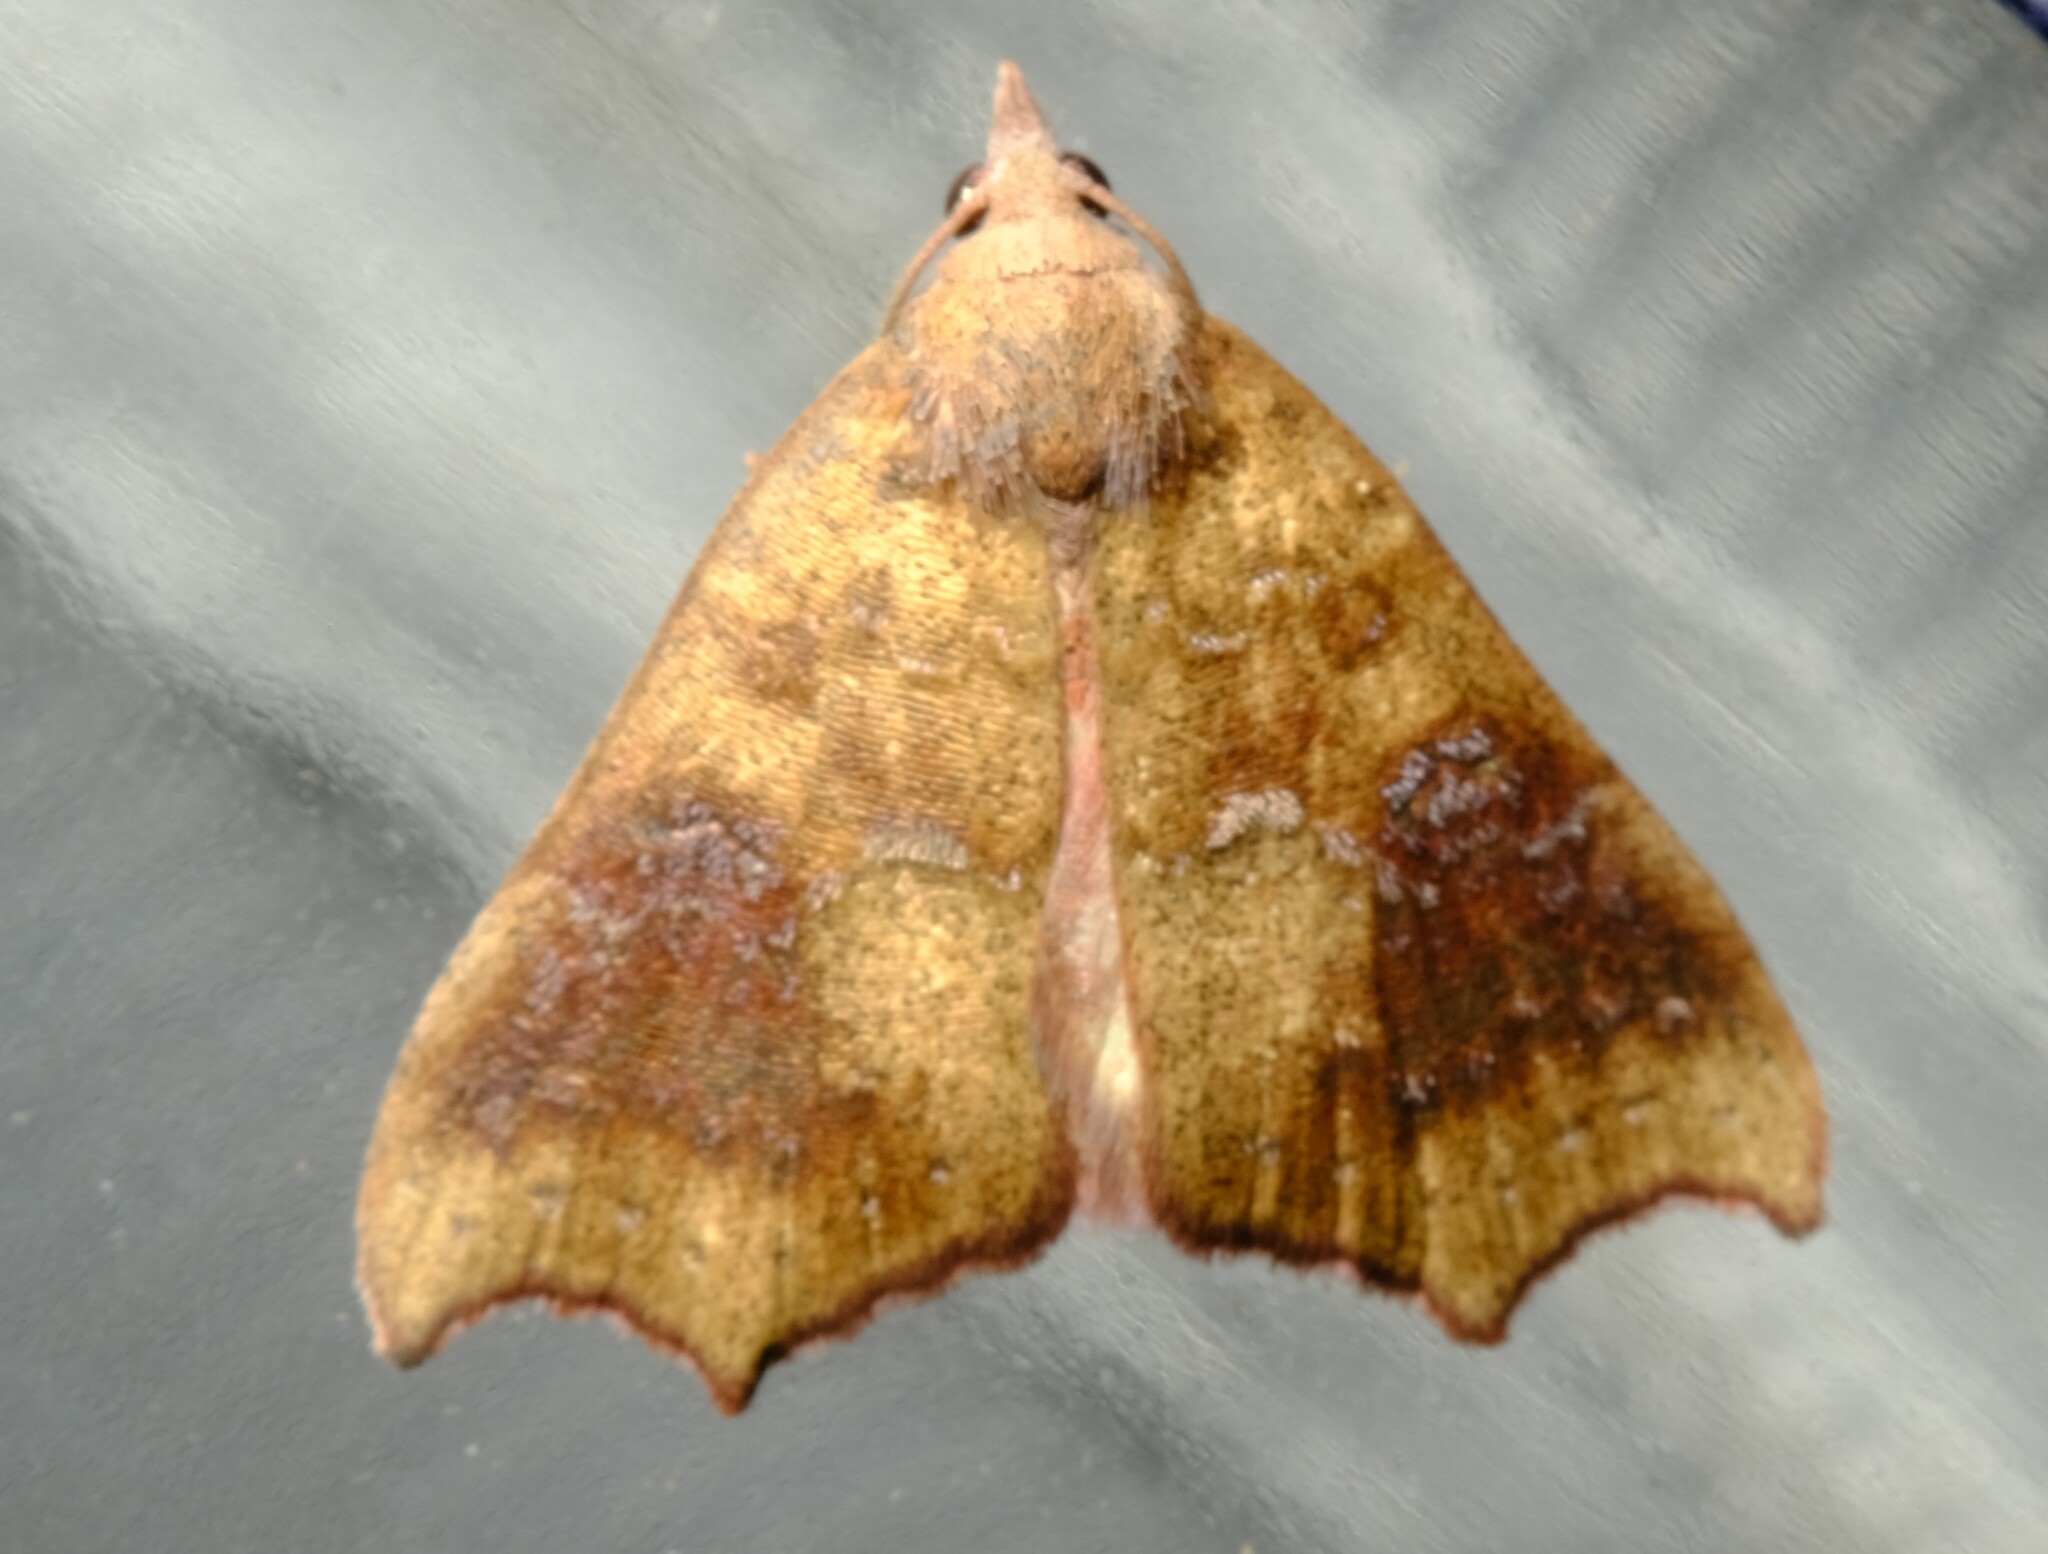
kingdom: Animalia
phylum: Arthropoda
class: Insecta
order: Lepidoptera
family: Erebidae
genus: Axiocteta
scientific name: Axiocteta oenoplex
